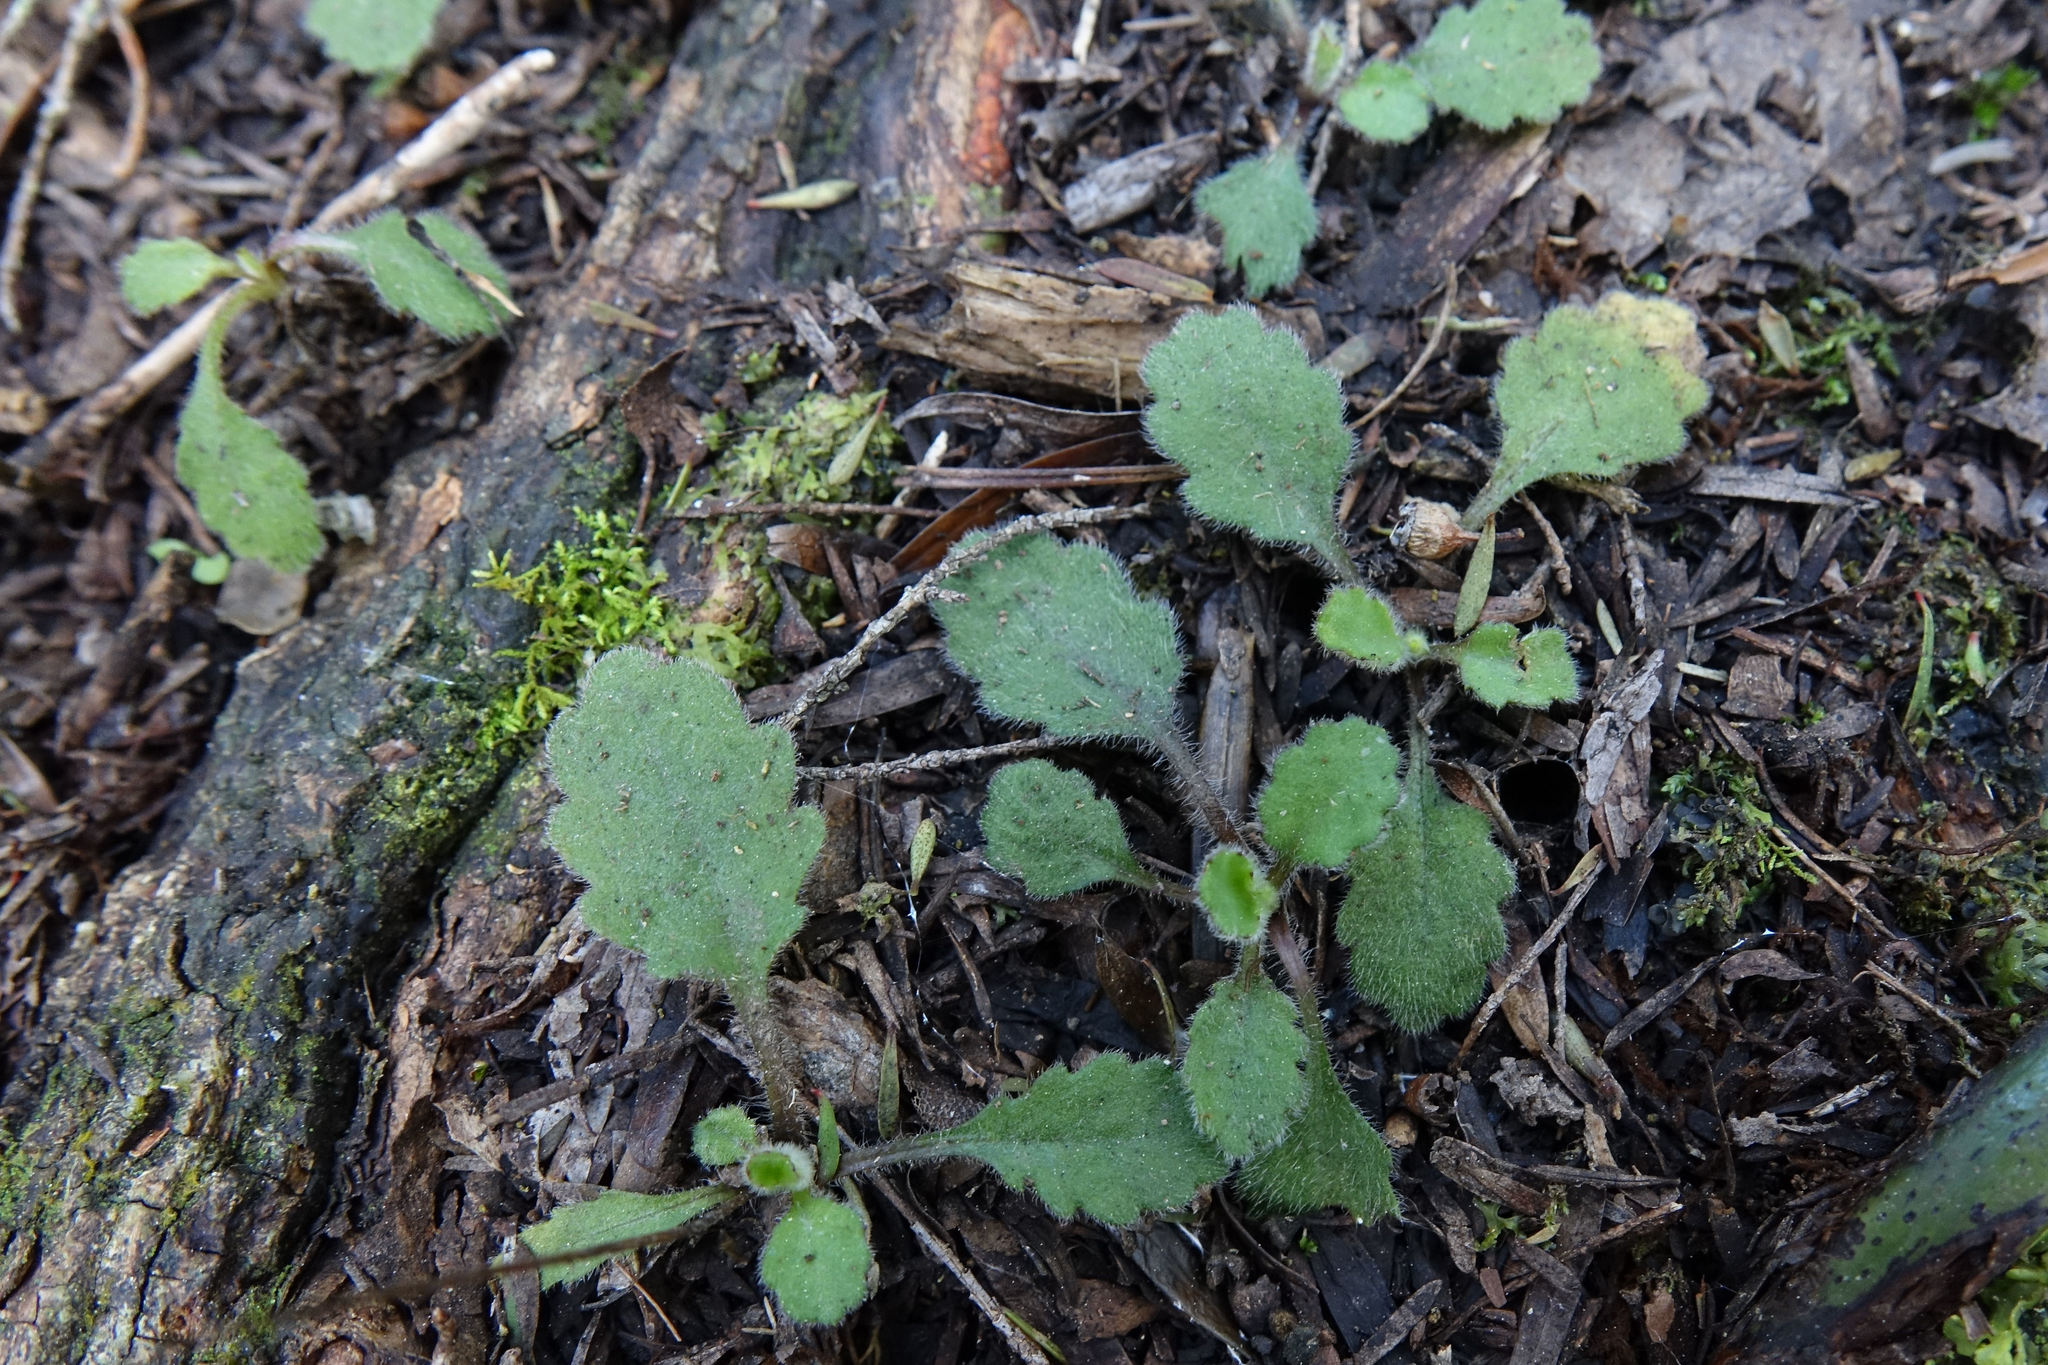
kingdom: Plantae
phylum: Tracheophyta
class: Magnoliopsida
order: Asterales
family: Asteraceae
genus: Lagenophora
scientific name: Lagenophora pinnatifida
